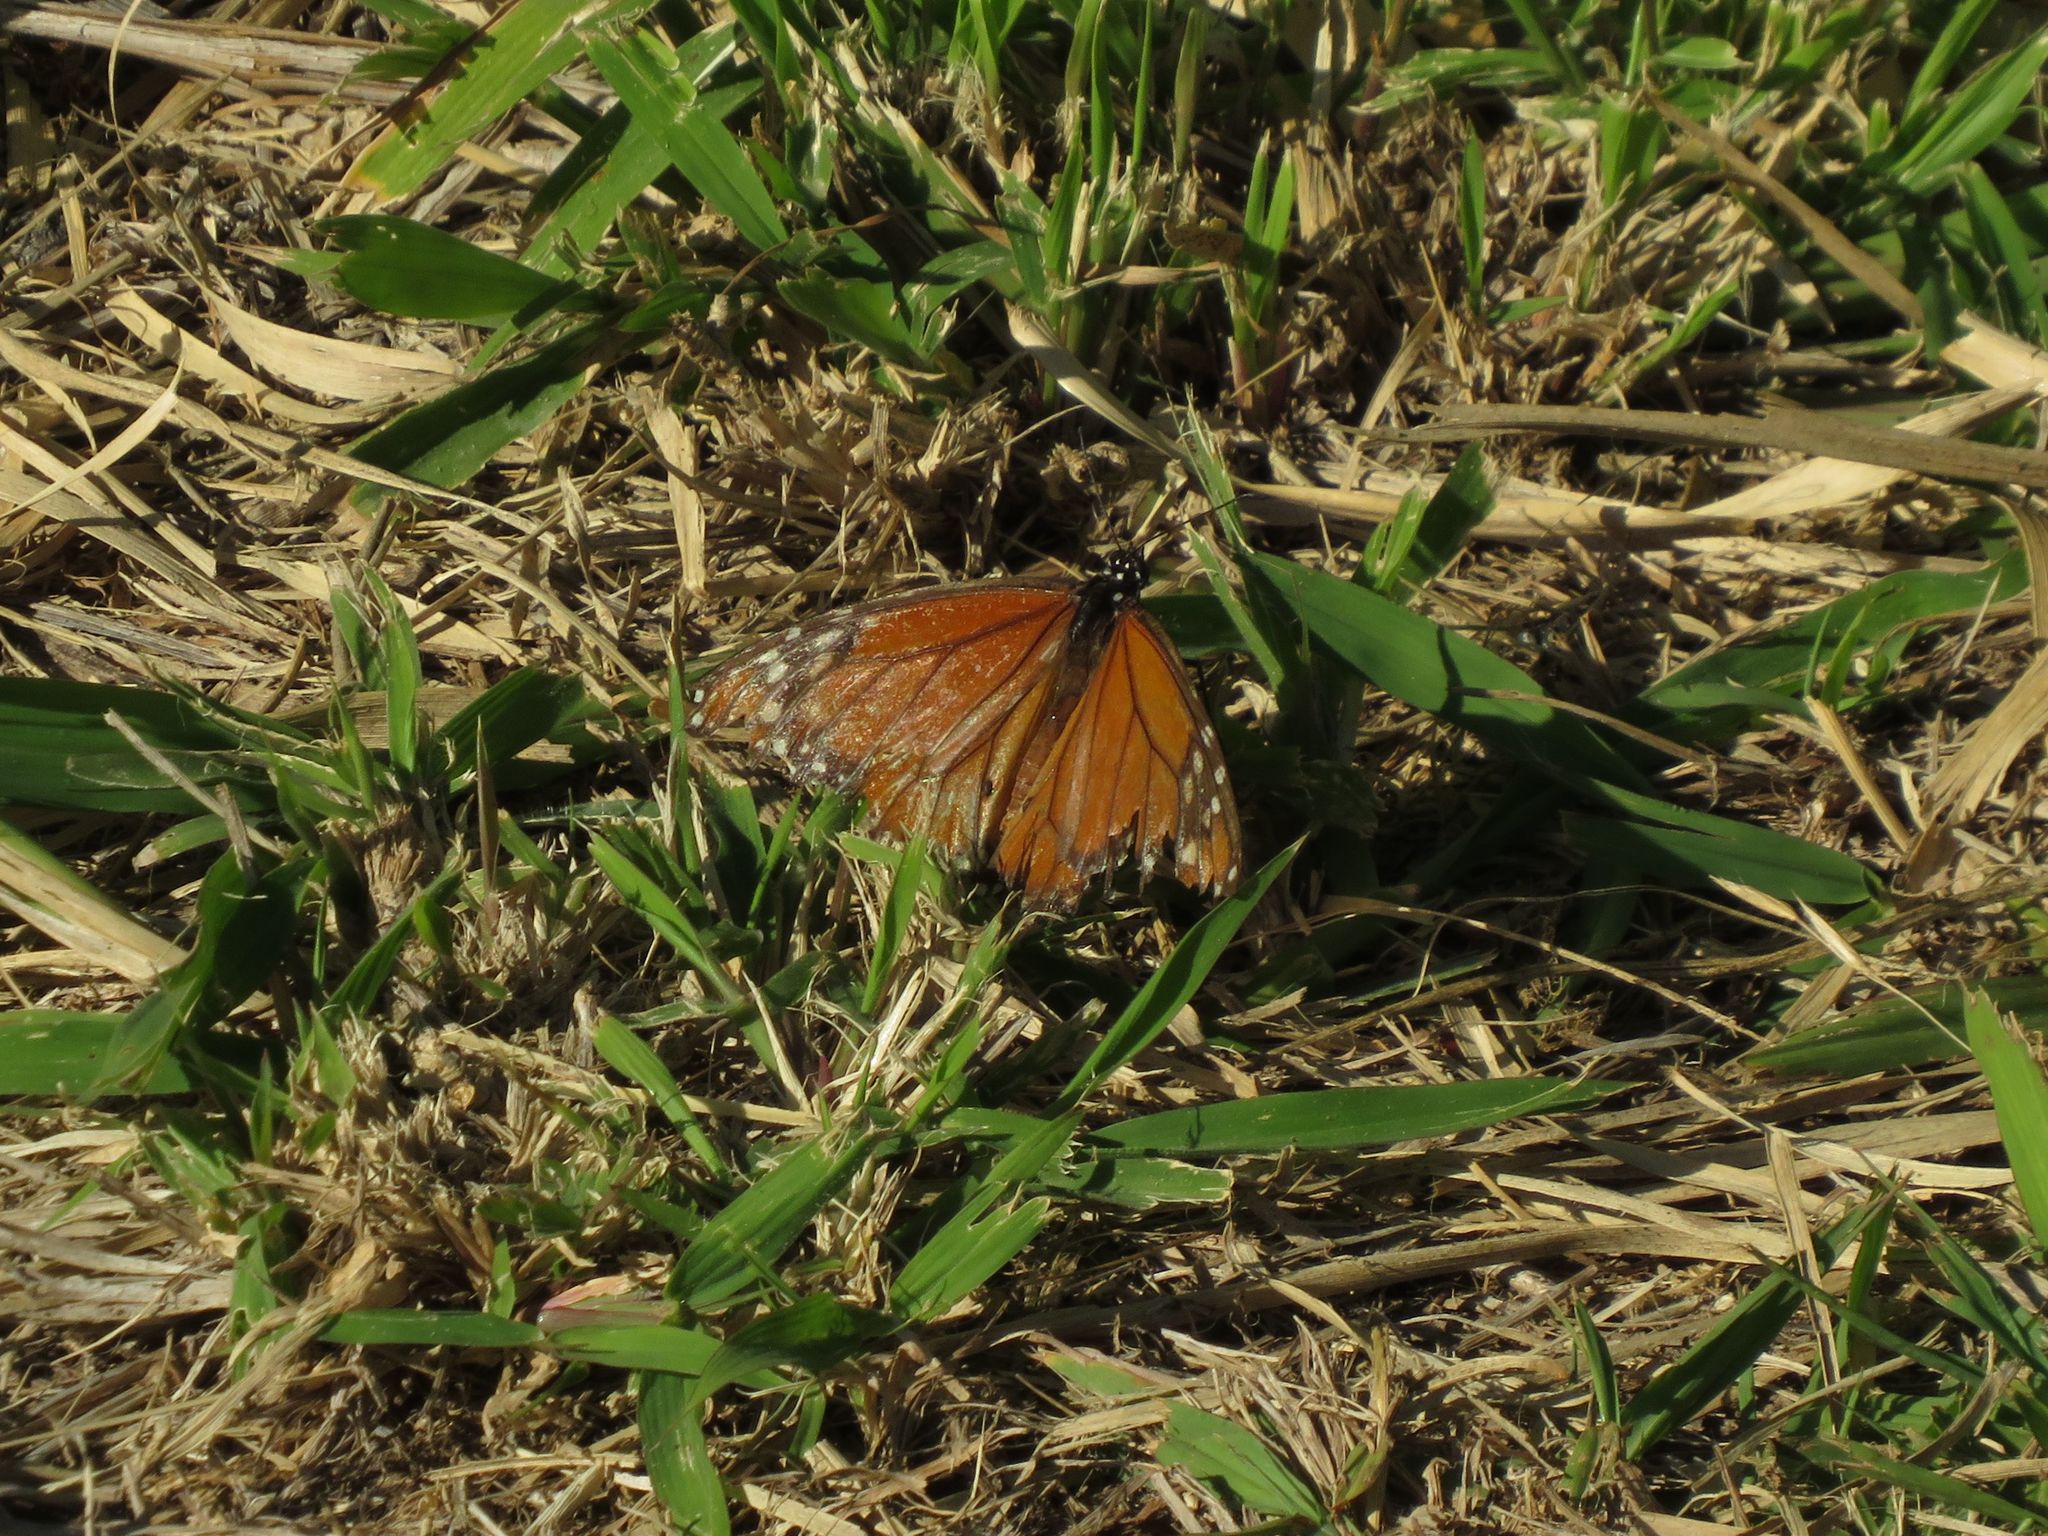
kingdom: Animalia
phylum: Arthropoda
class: Insecta
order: Lepidoptera
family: Nymphalidae
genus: Danaus
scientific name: Danaus erippus
